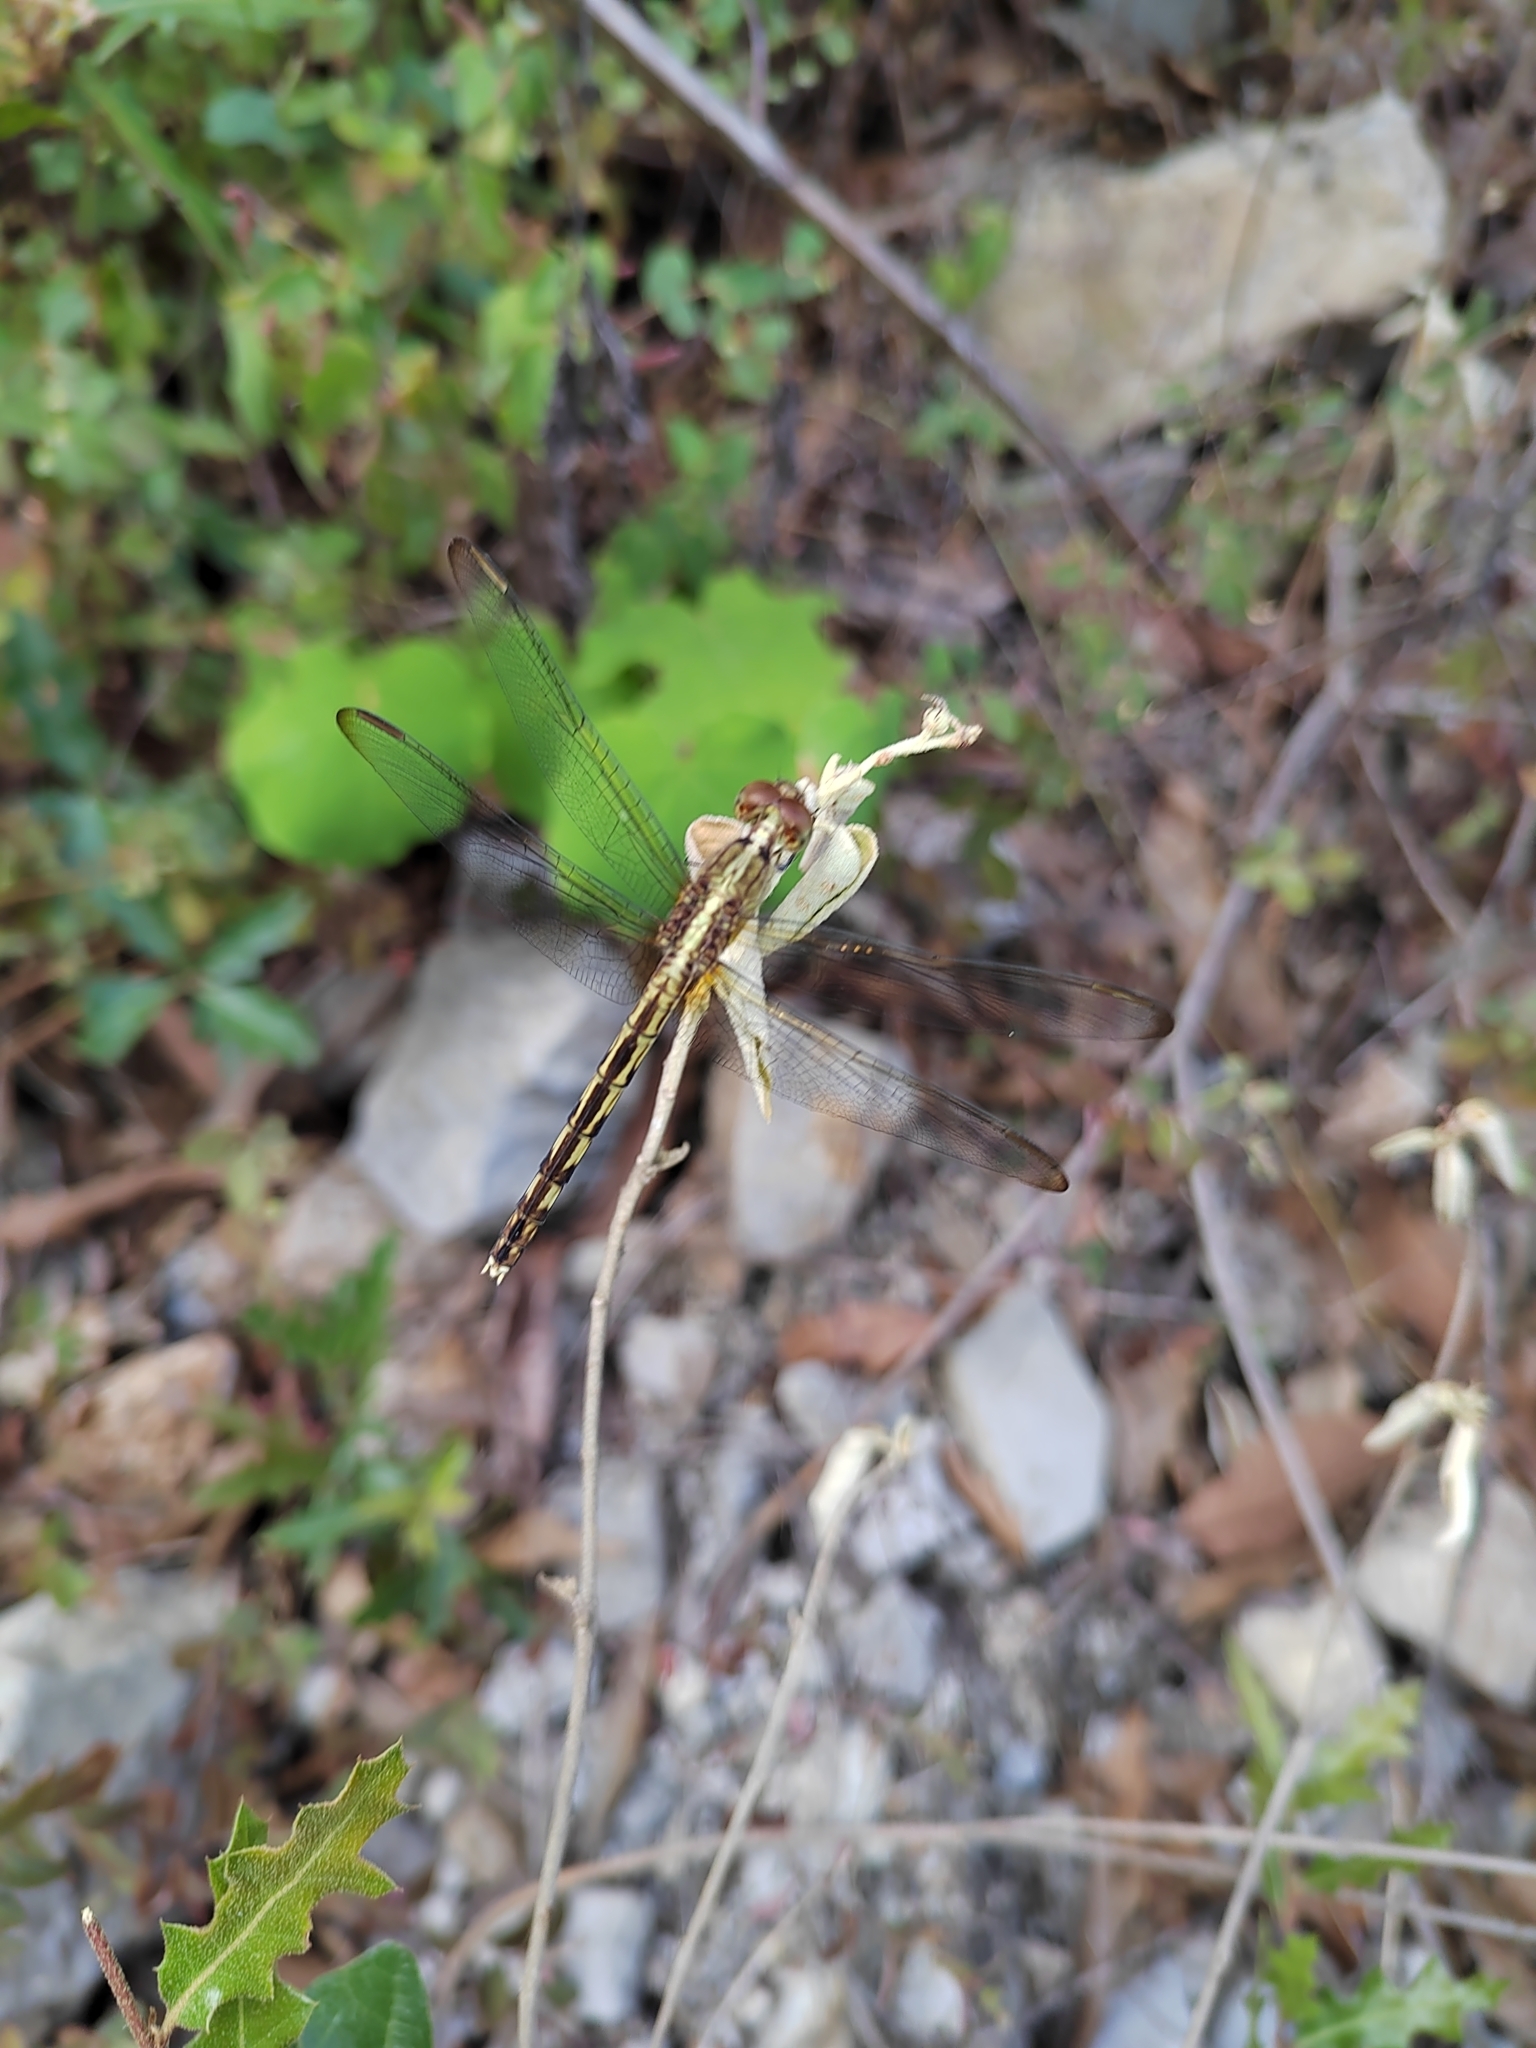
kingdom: Animalia
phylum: Arthropoda
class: Insecta
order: Odonata
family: Libellulidae
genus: Erythrodiplax
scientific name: Erythrodiplax umbrata
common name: Band-winged dragonlet
